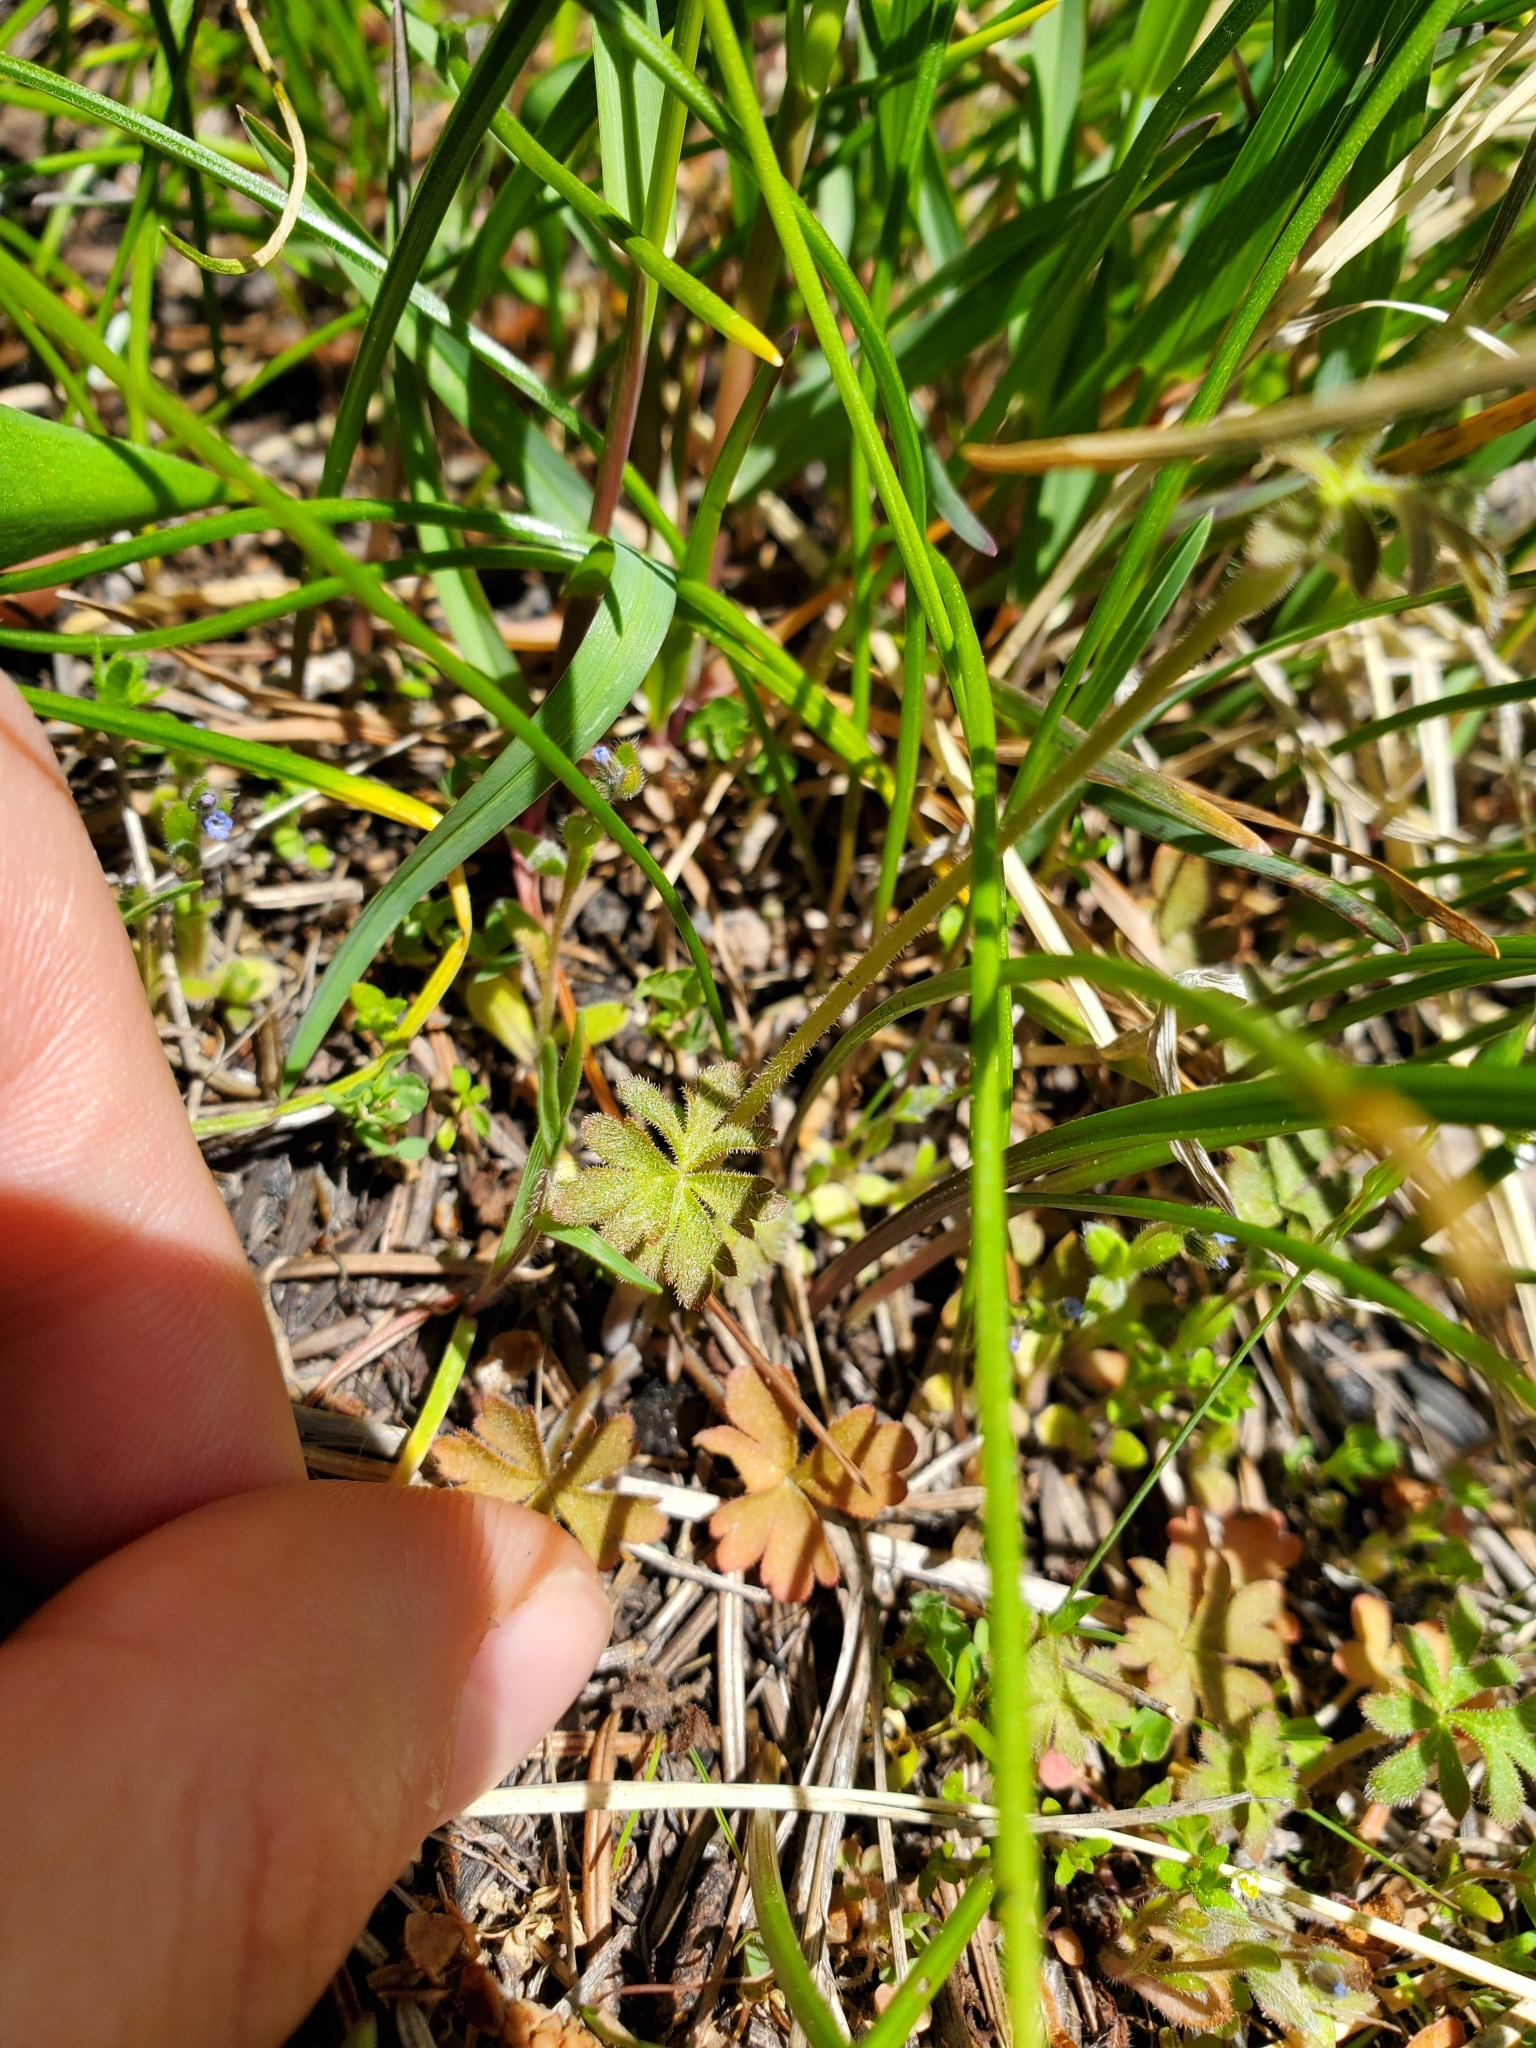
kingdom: Plantae
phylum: Tracheophyta
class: Magnoliopsida
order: Saxifragales
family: Saxifragaceae
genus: Lithophragma
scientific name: Lithophragma parviflorum
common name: Small-flowered fringe-cup
